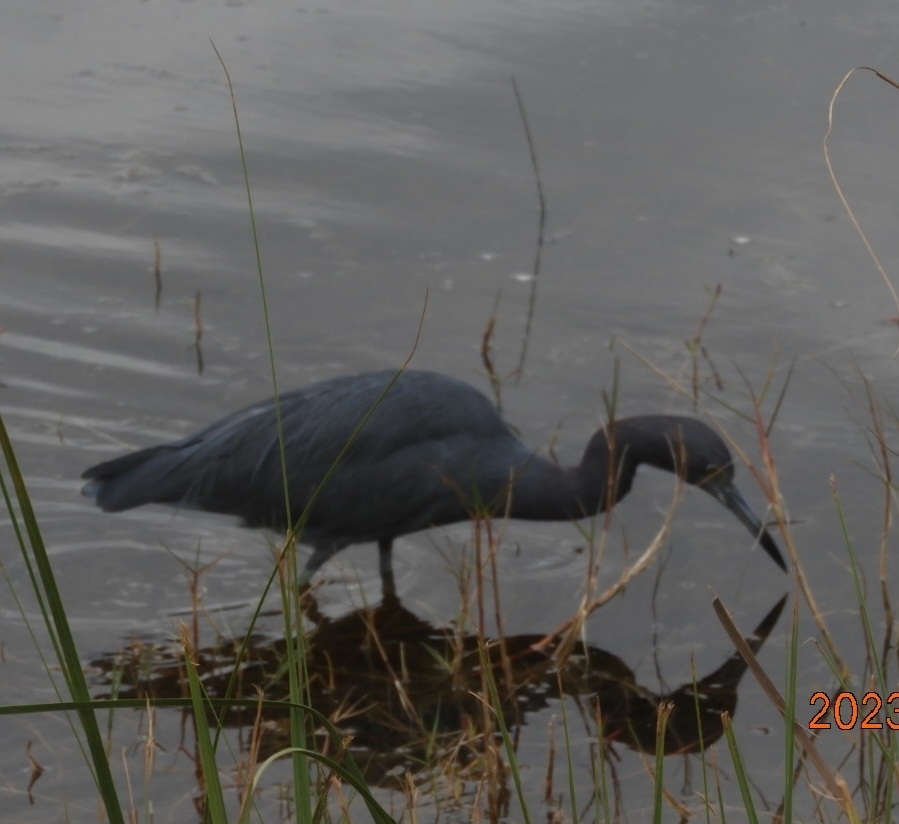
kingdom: Animalia
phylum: Chordata
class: Aves
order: Pelecaniformes
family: Ardeidae
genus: Egretta
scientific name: Egretta caerulea
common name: Little blue heron
